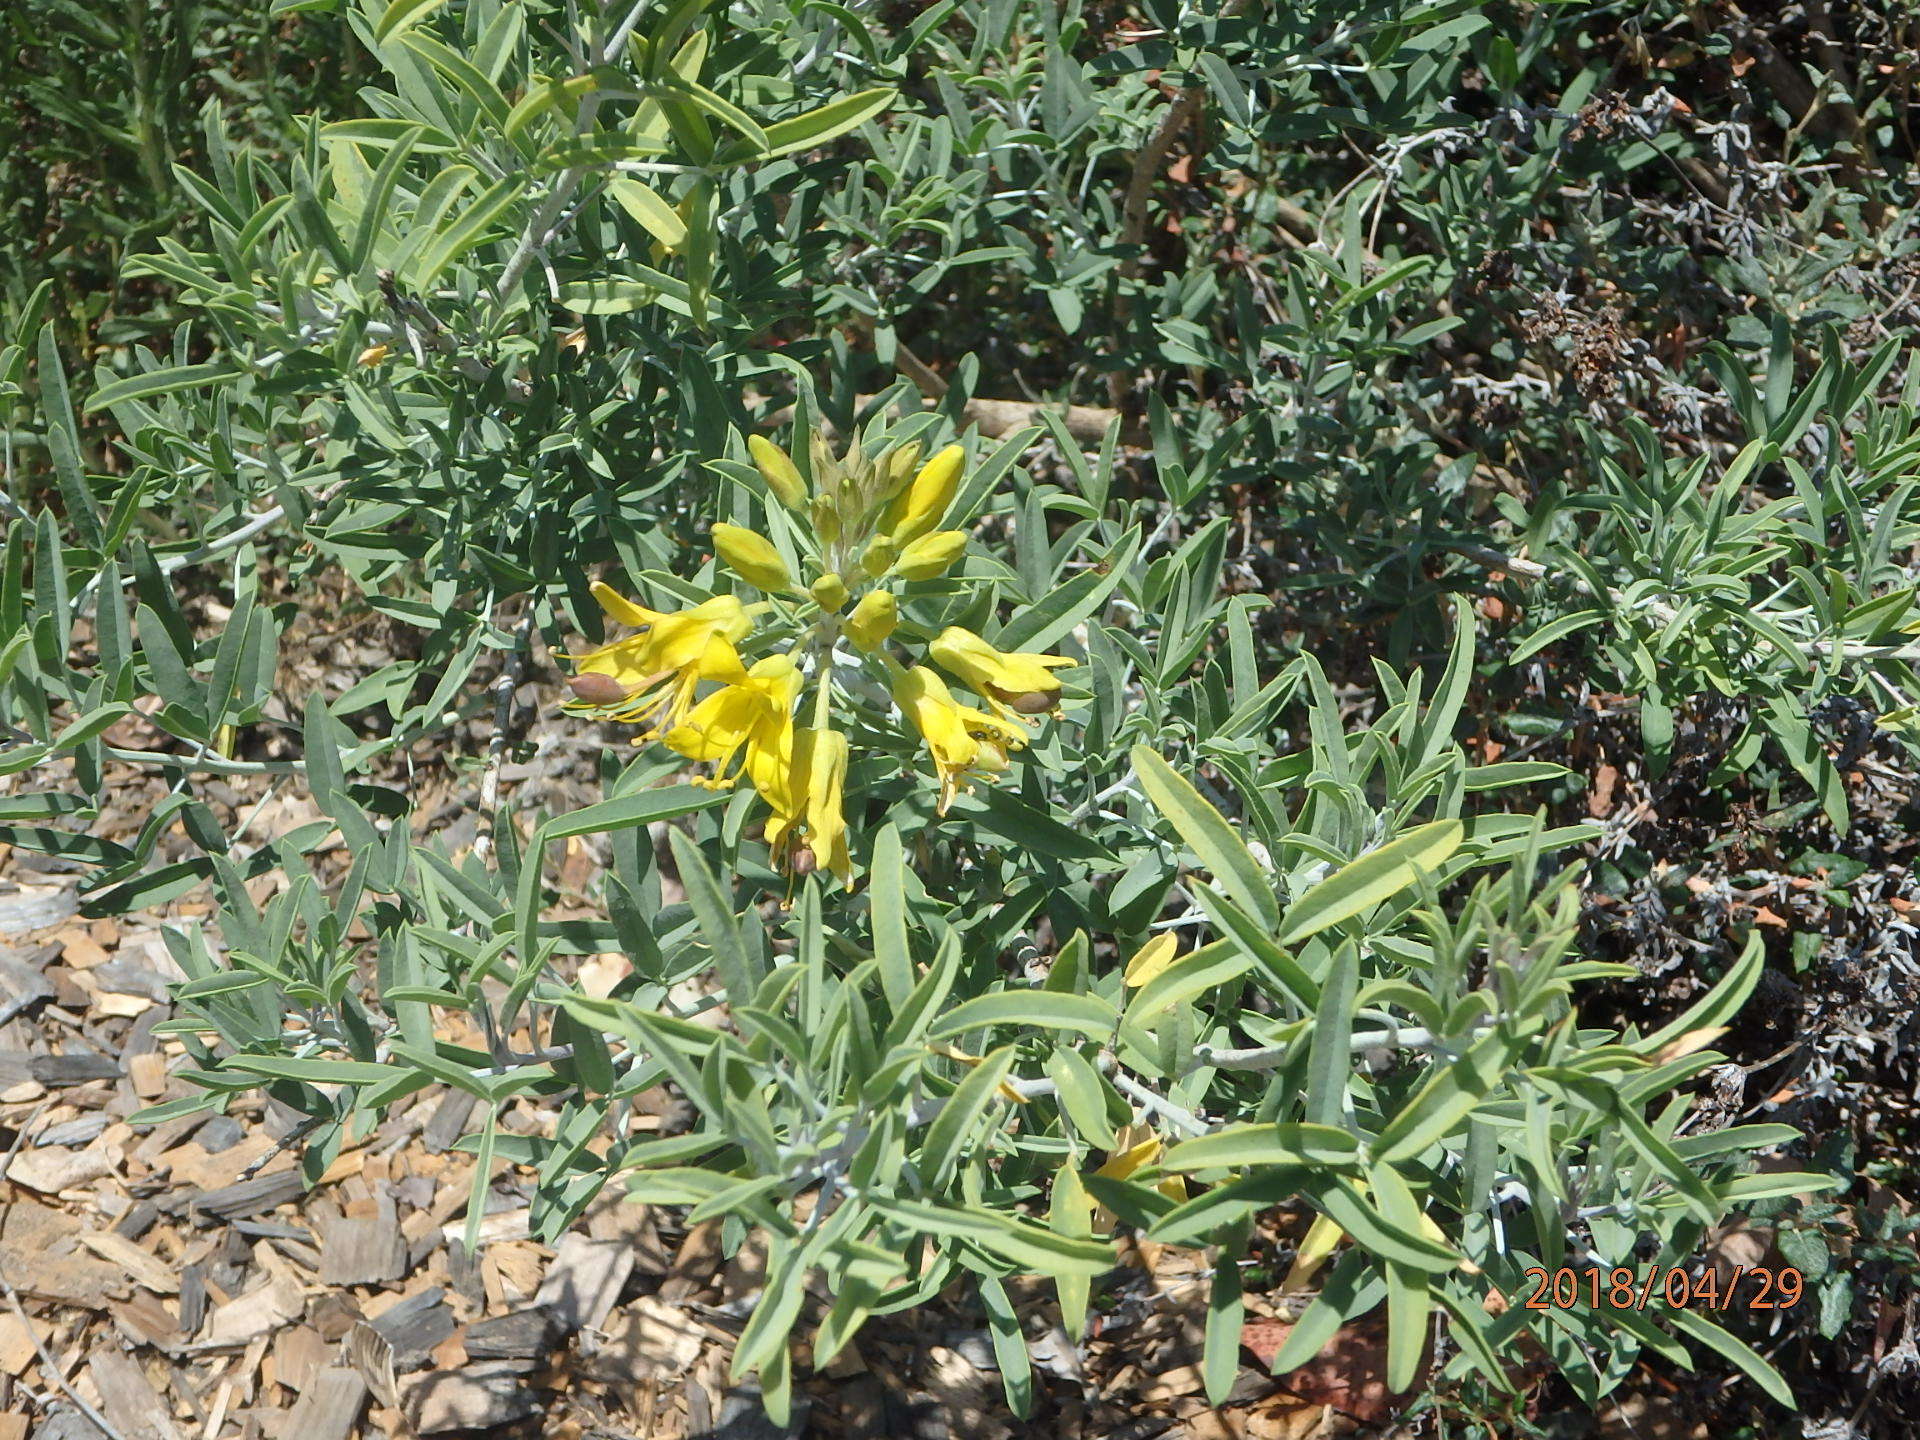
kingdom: Plantae
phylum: Tracheophyta
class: Magnoliopsida
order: Brassicales
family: Cleomaceae
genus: Cleomella
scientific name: Cleomella arborea
